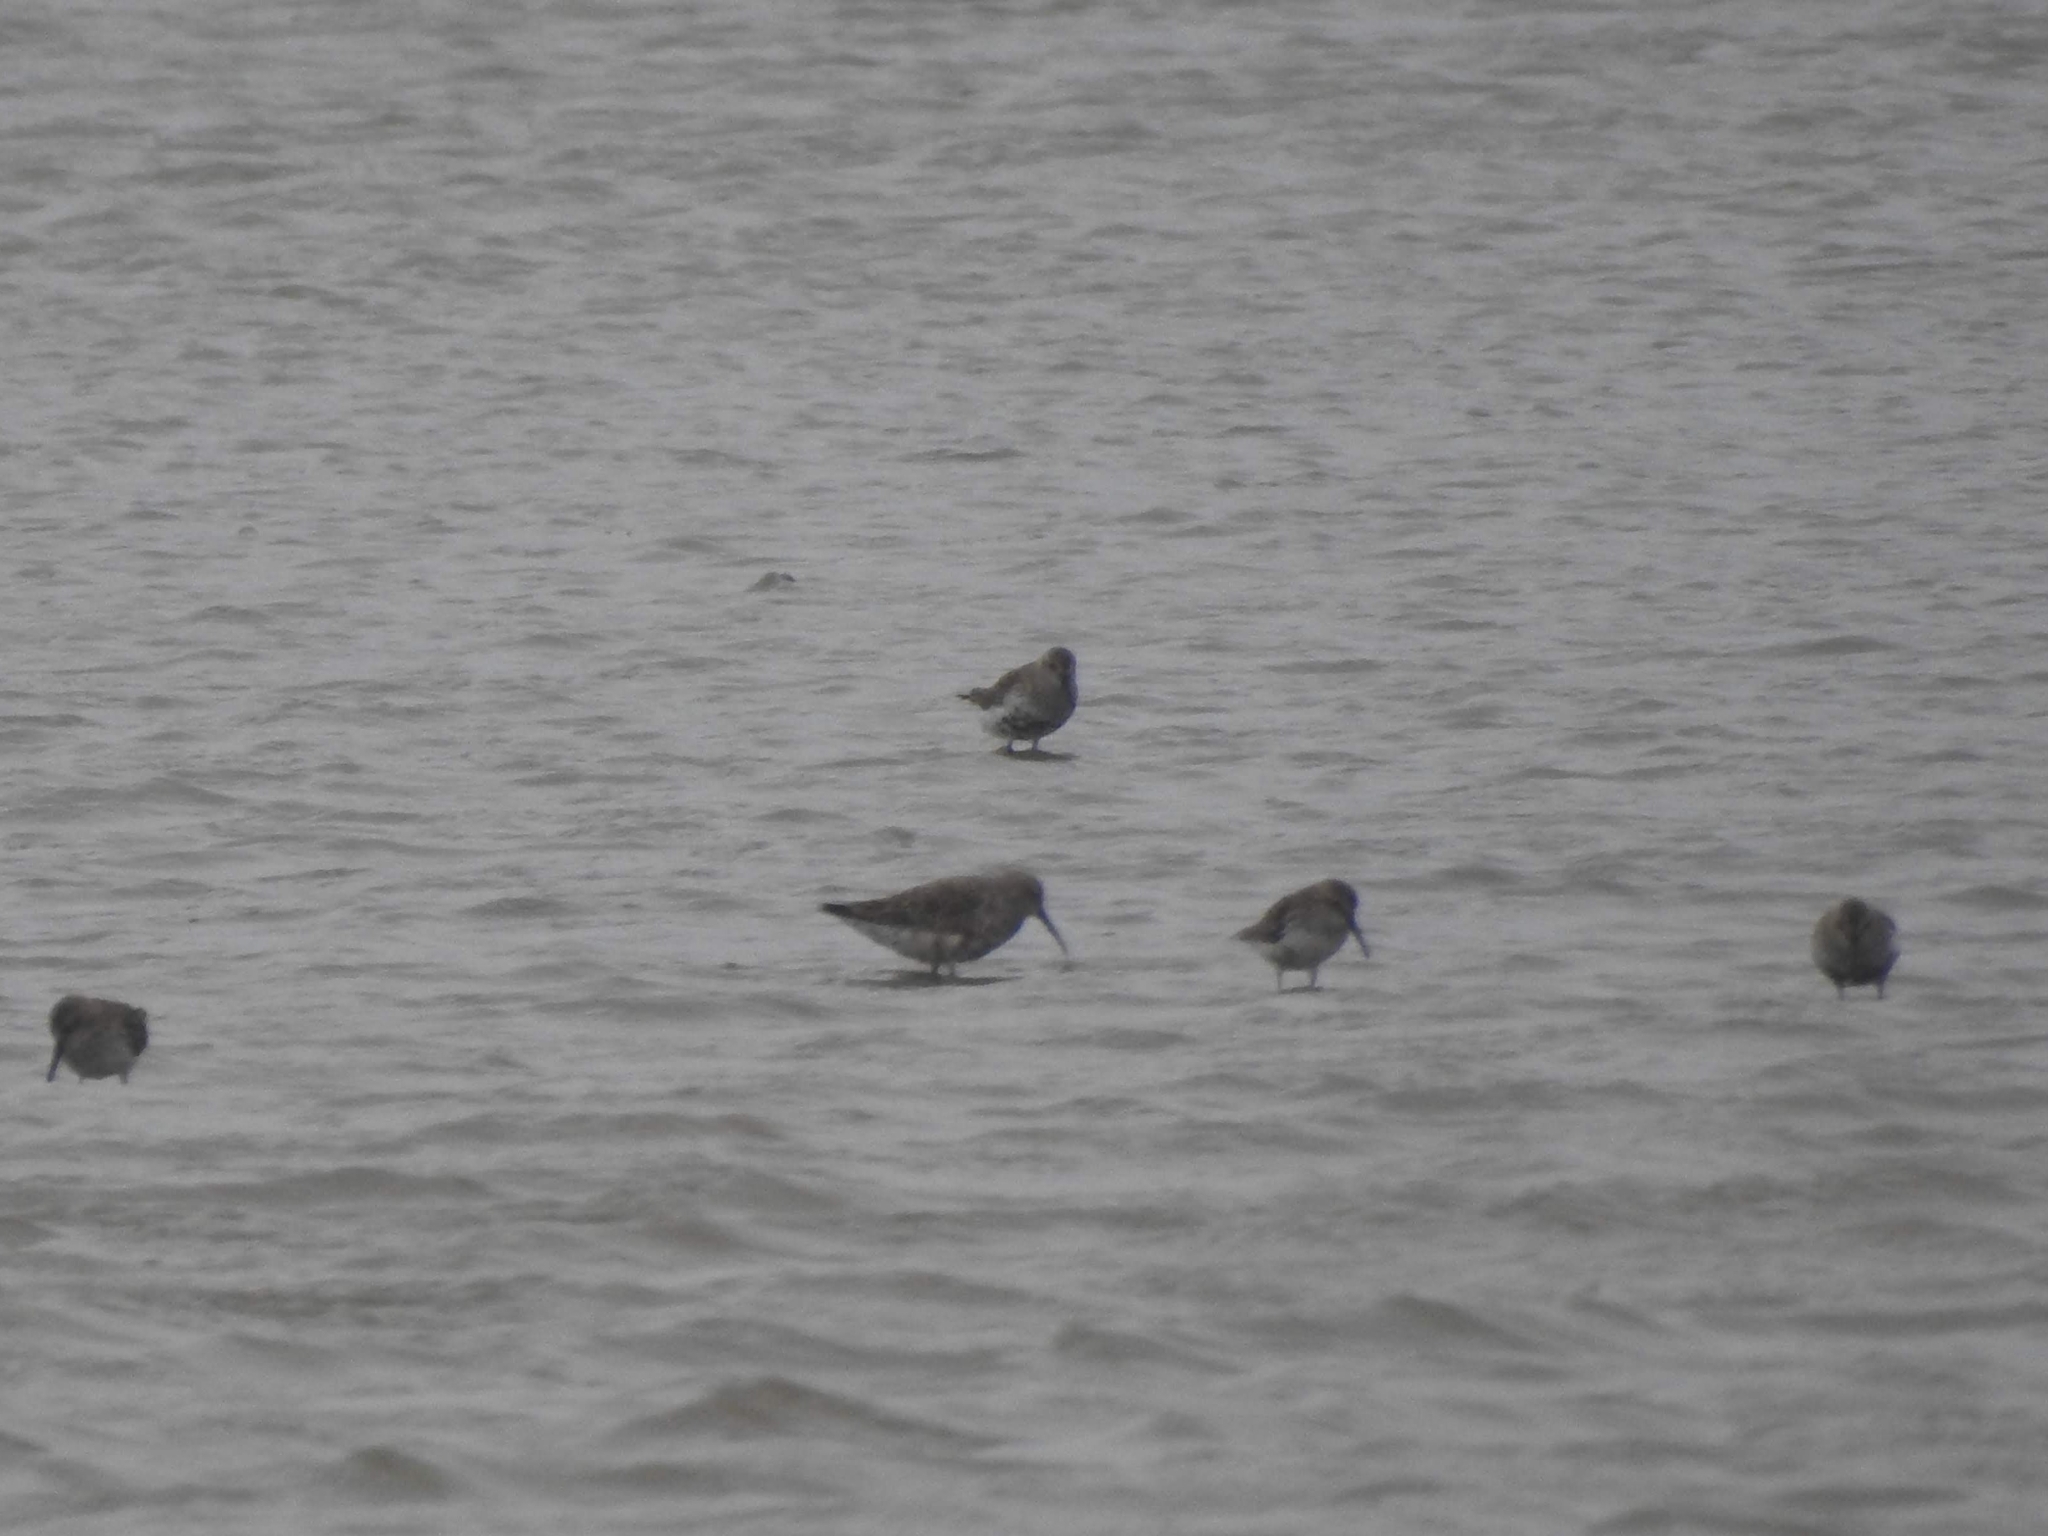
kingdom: Animalia
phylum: Chordata
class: Aves
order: Charadriiformes
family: Scolopacidae
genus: Calidris
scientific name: Calidris ferruginea
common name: Curlew sandpiper
